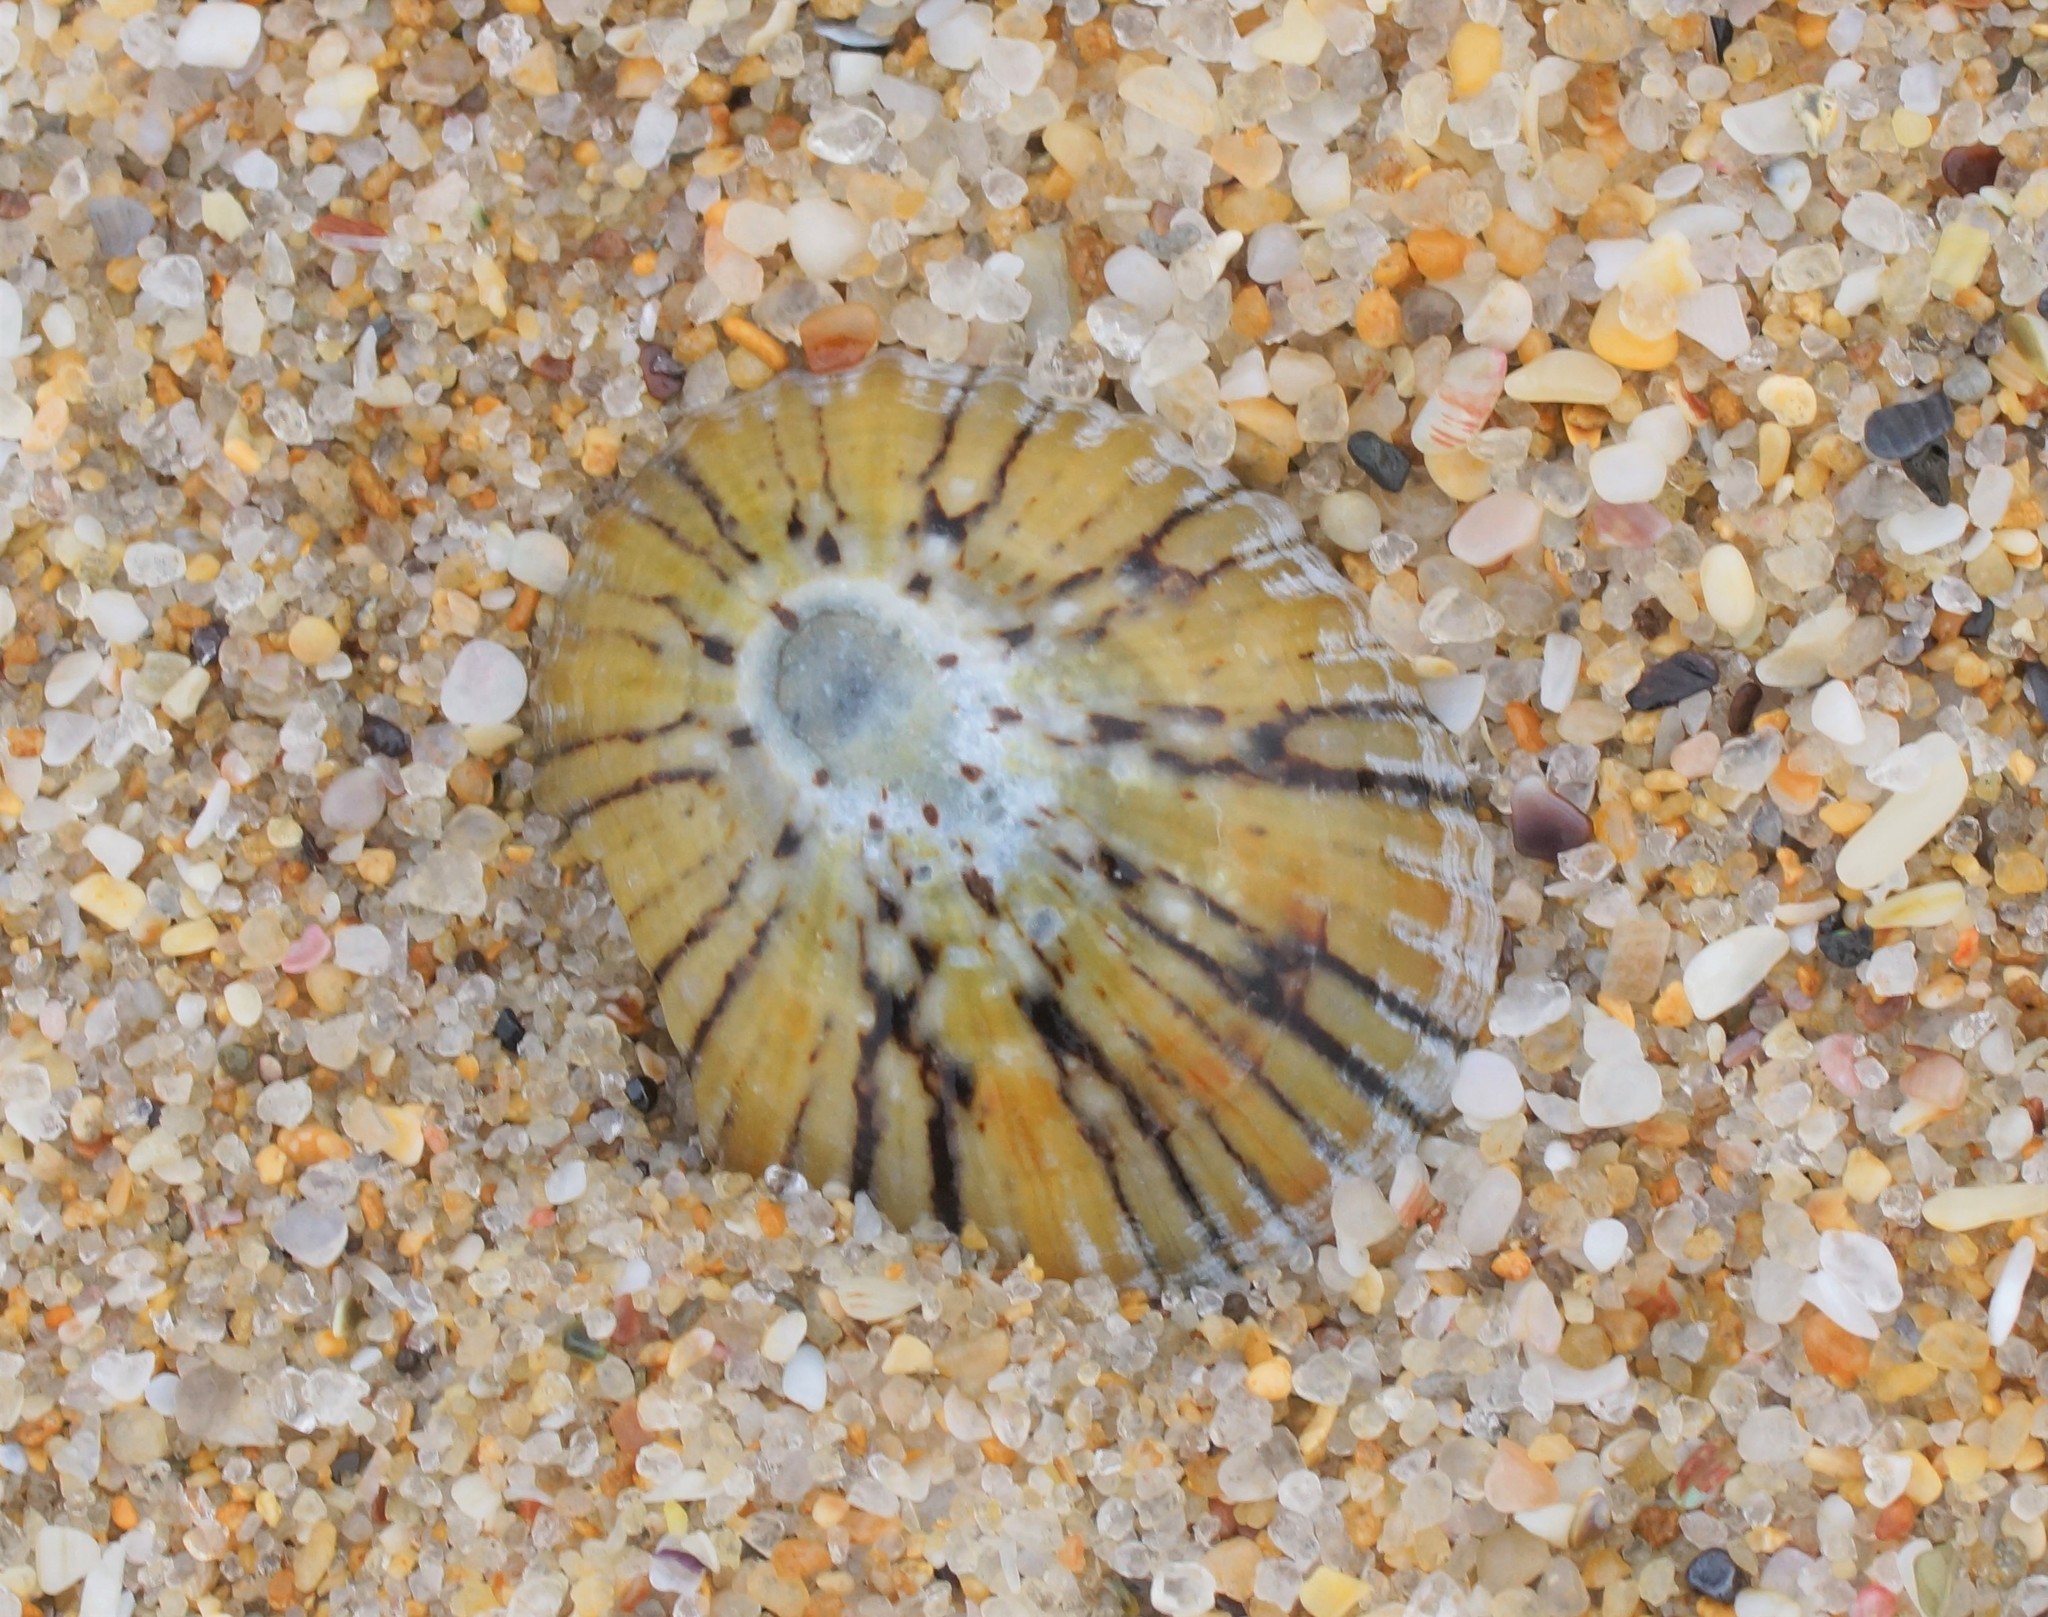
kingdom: Animalia
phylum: Mollusca
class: Gastropoda
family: Nacellidae
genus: Cellana
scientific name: Cellana tramoserica
